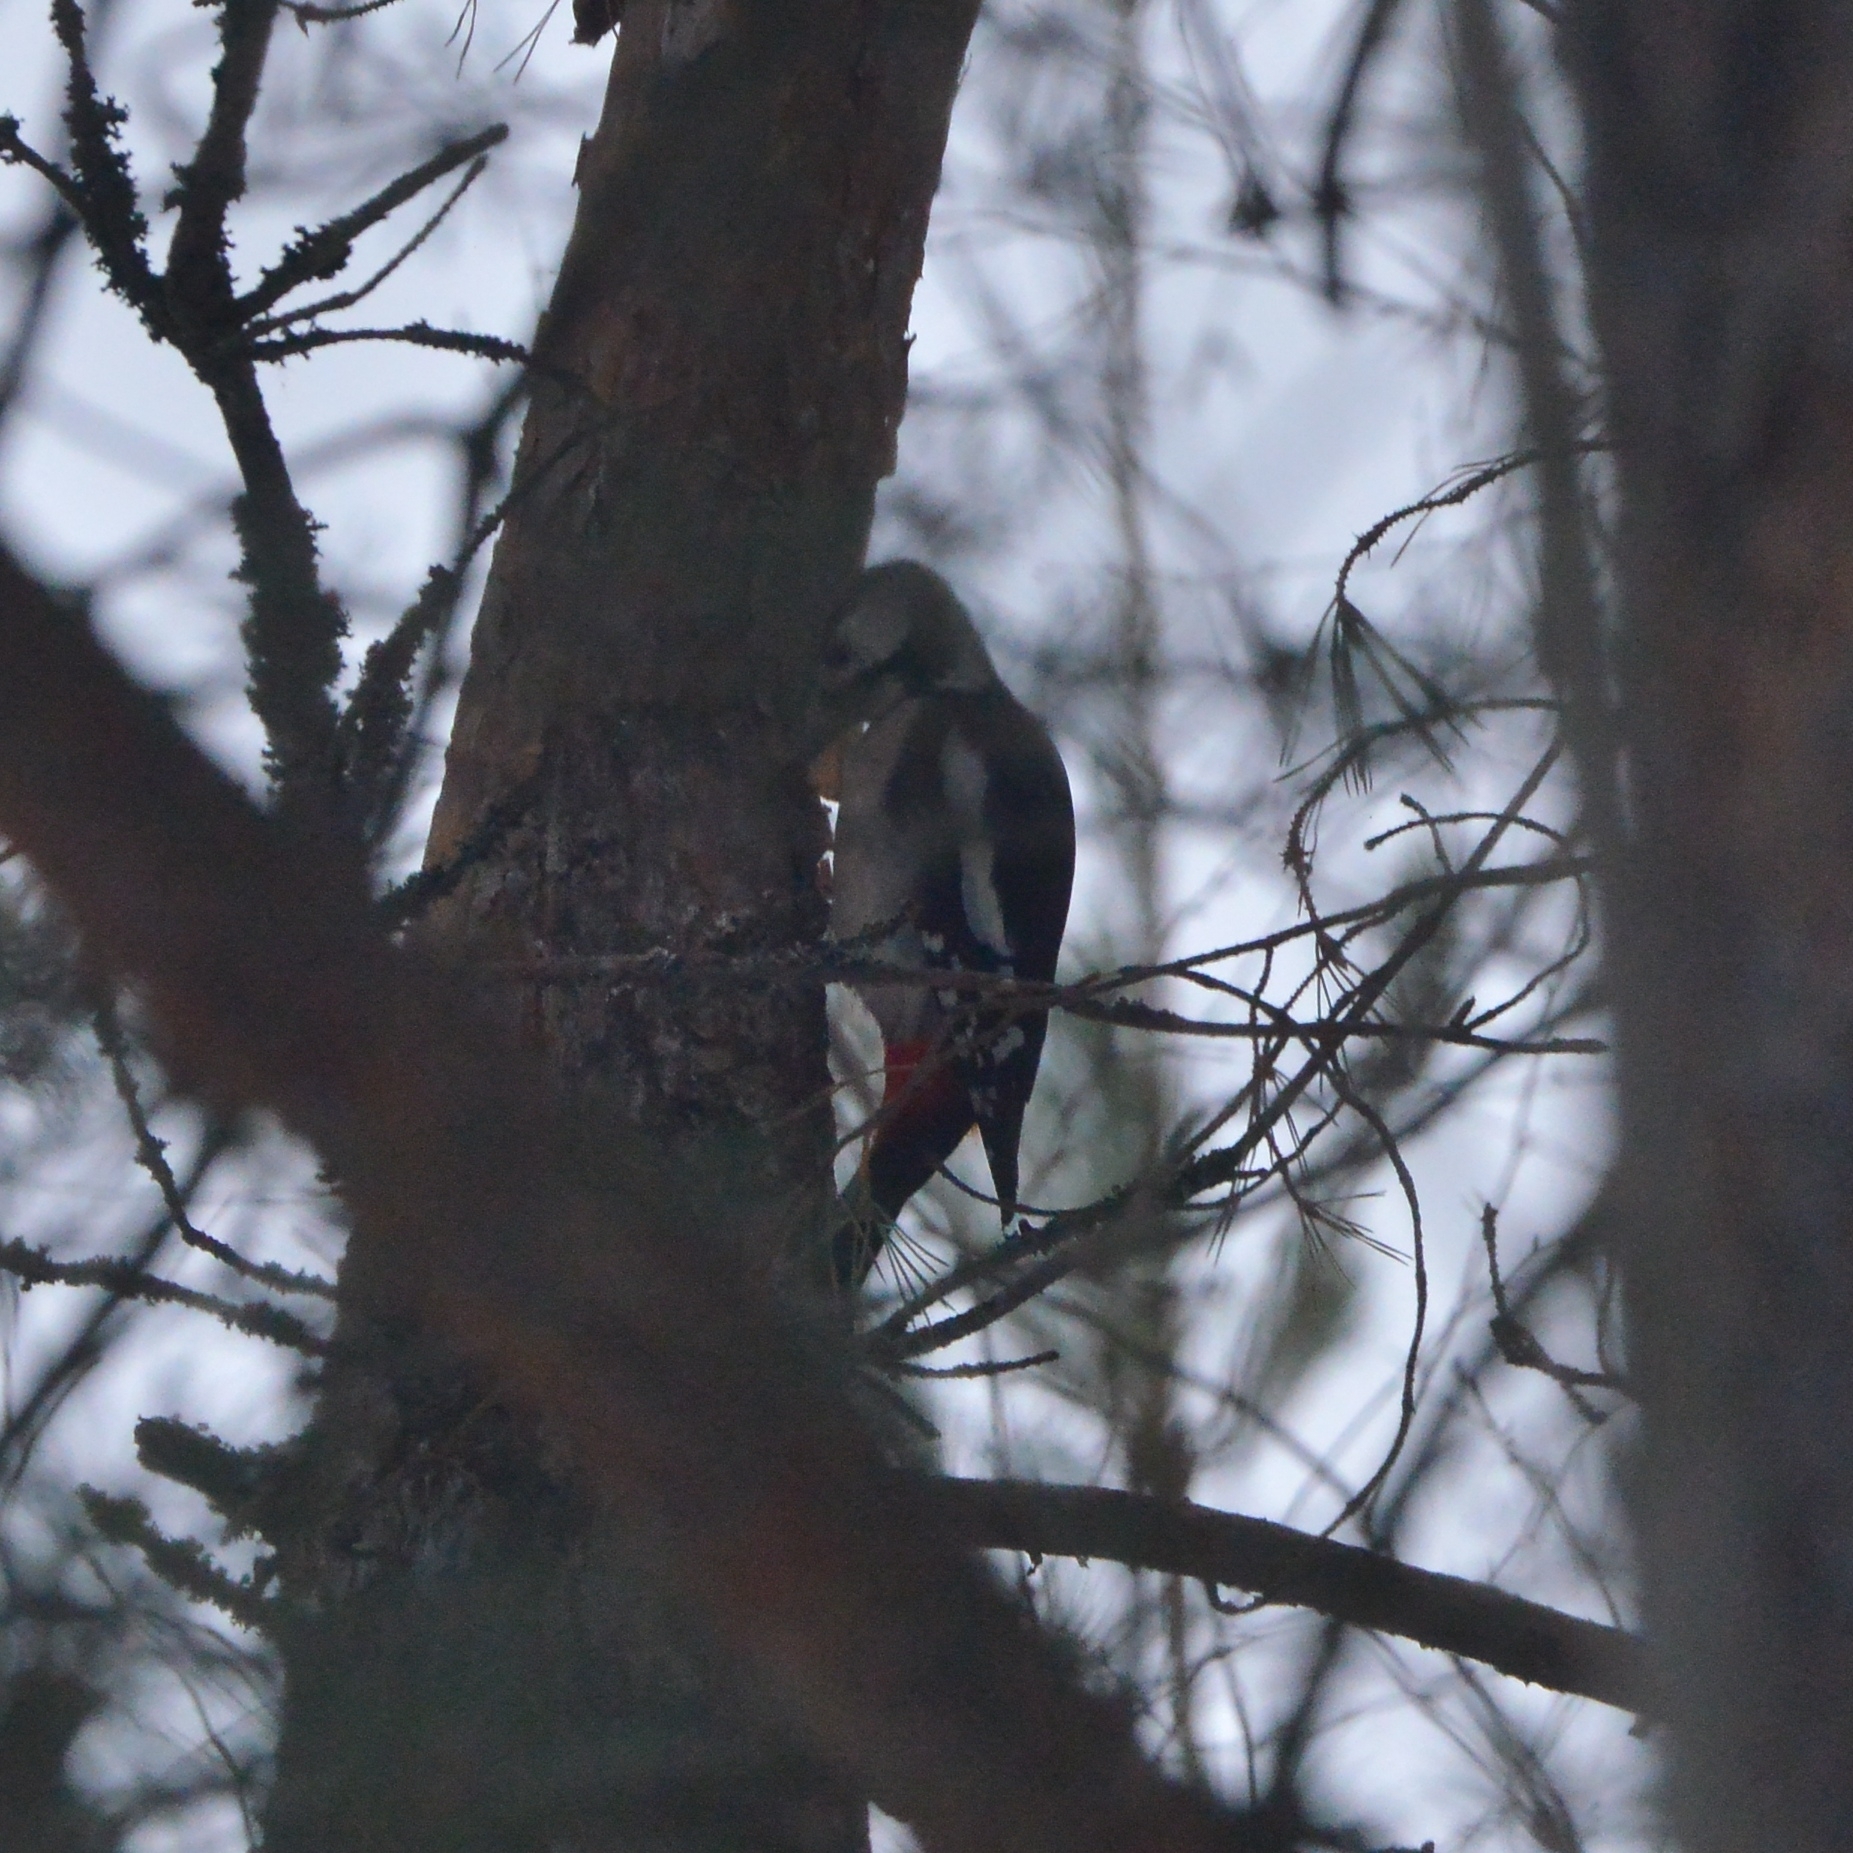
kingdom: Animalia
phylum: Chordata
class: Aves
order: Piciformes
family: Picidae
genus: Dendrocopos
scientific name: Dendrocopos major
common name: Great spotted woodpecker
